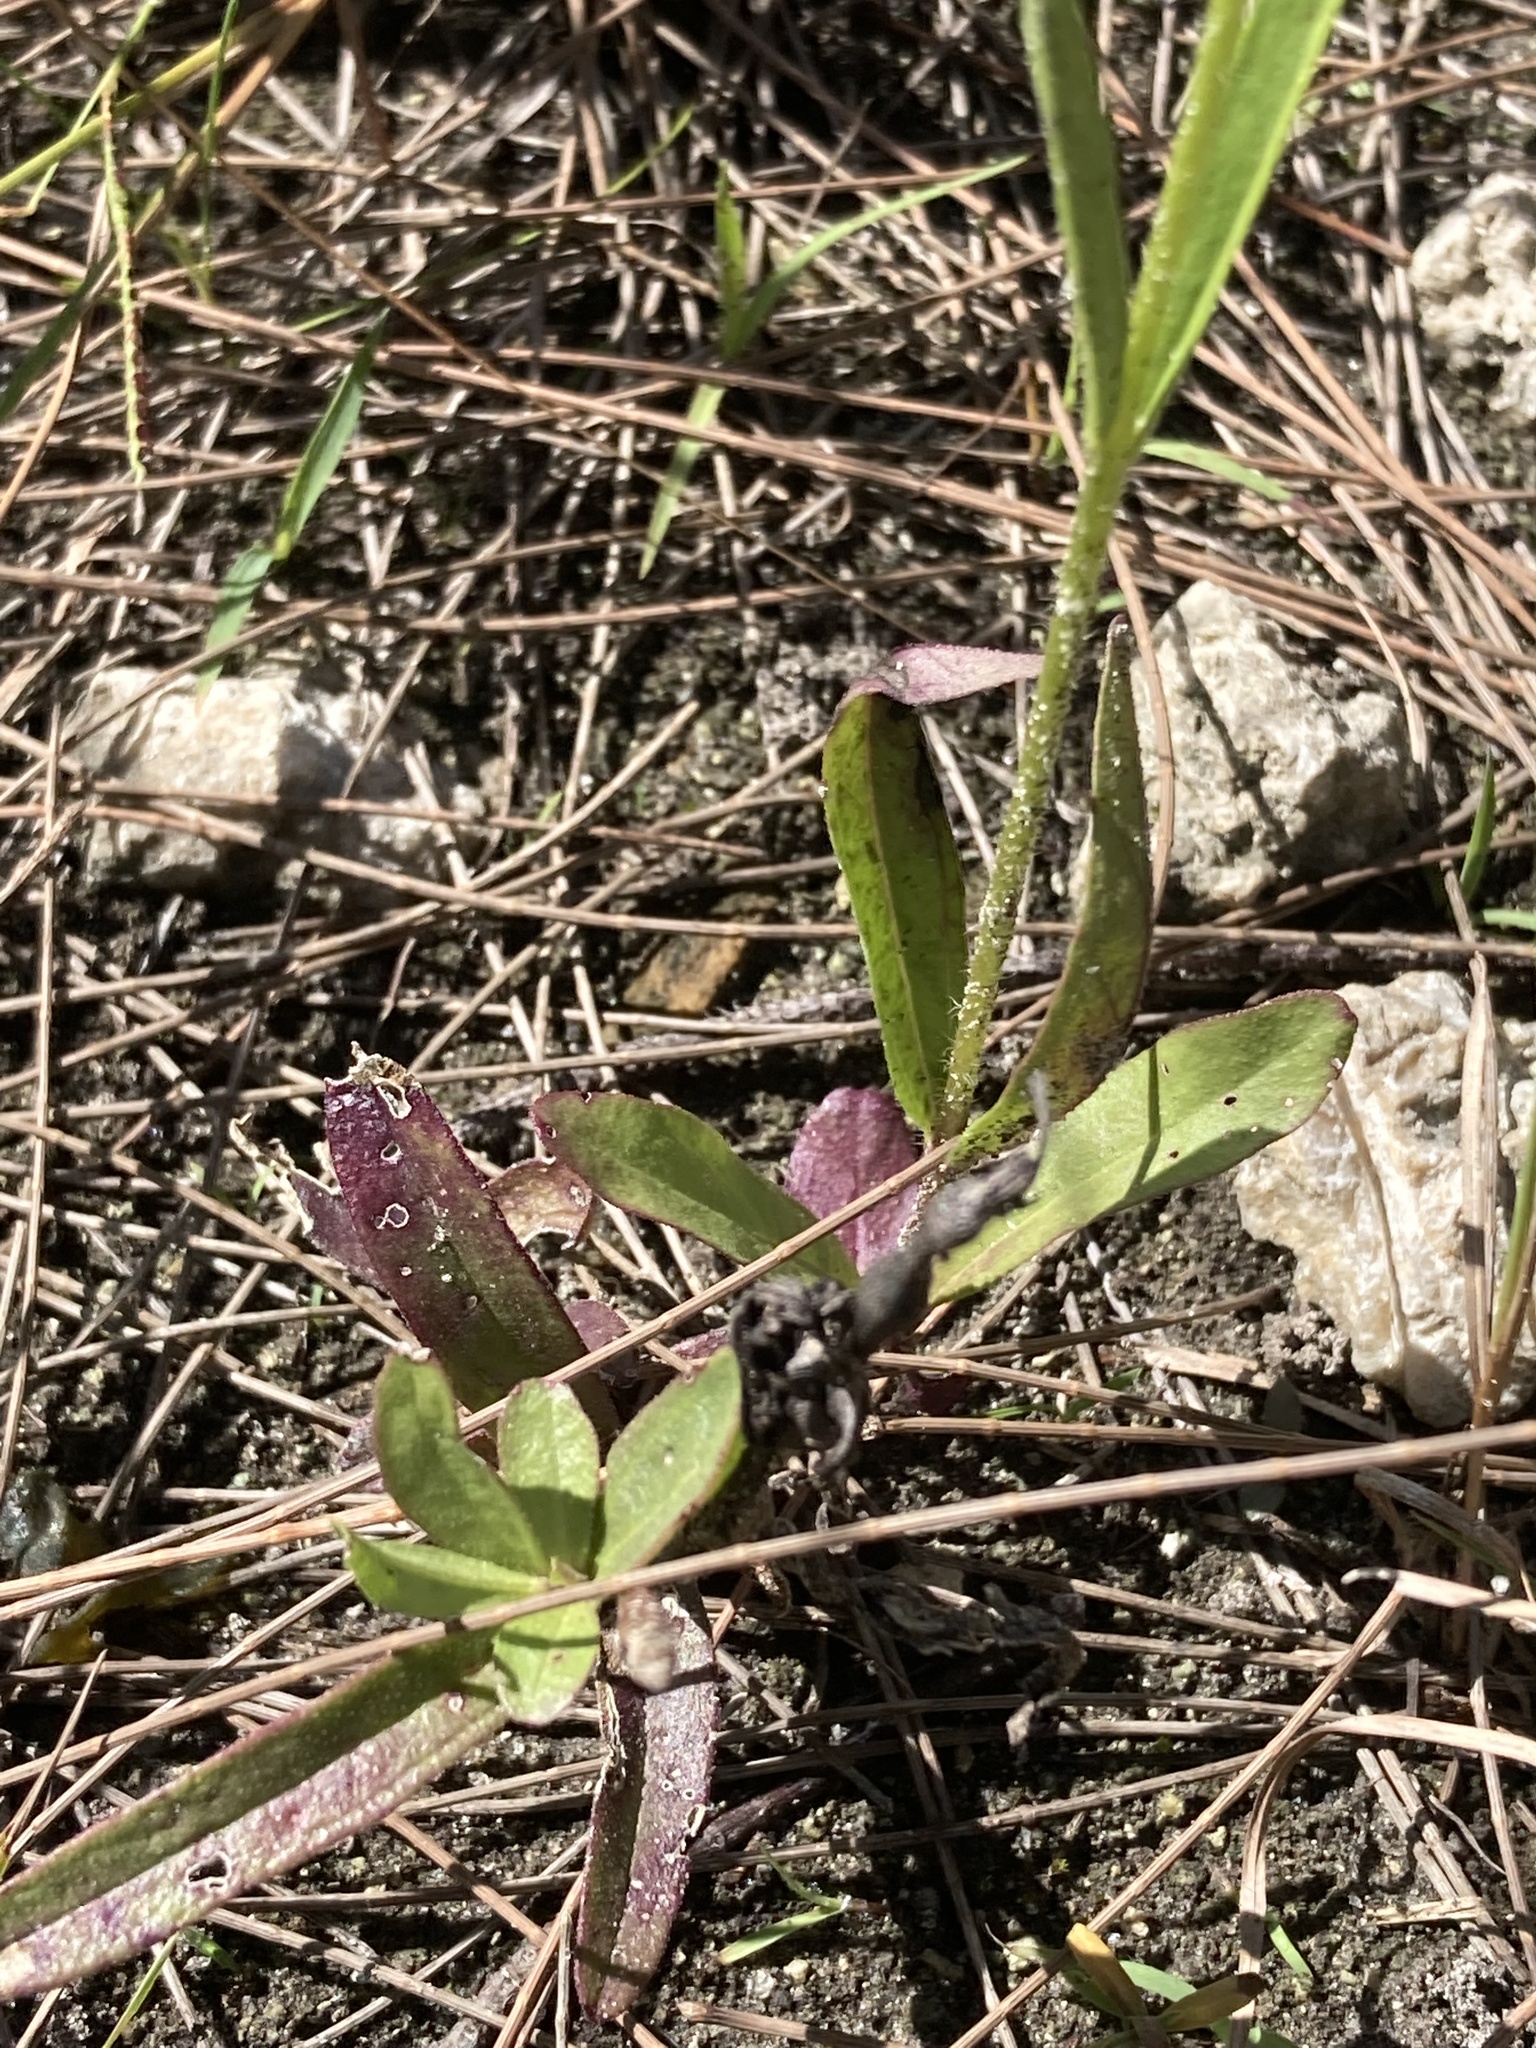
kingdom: Plantae
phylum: Tracheophyta
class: Magnoliopsida
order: Lamiales
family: Orobanchaceae
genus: Buchnera
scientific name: Buchnera floridana
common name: Florida bluehearts
